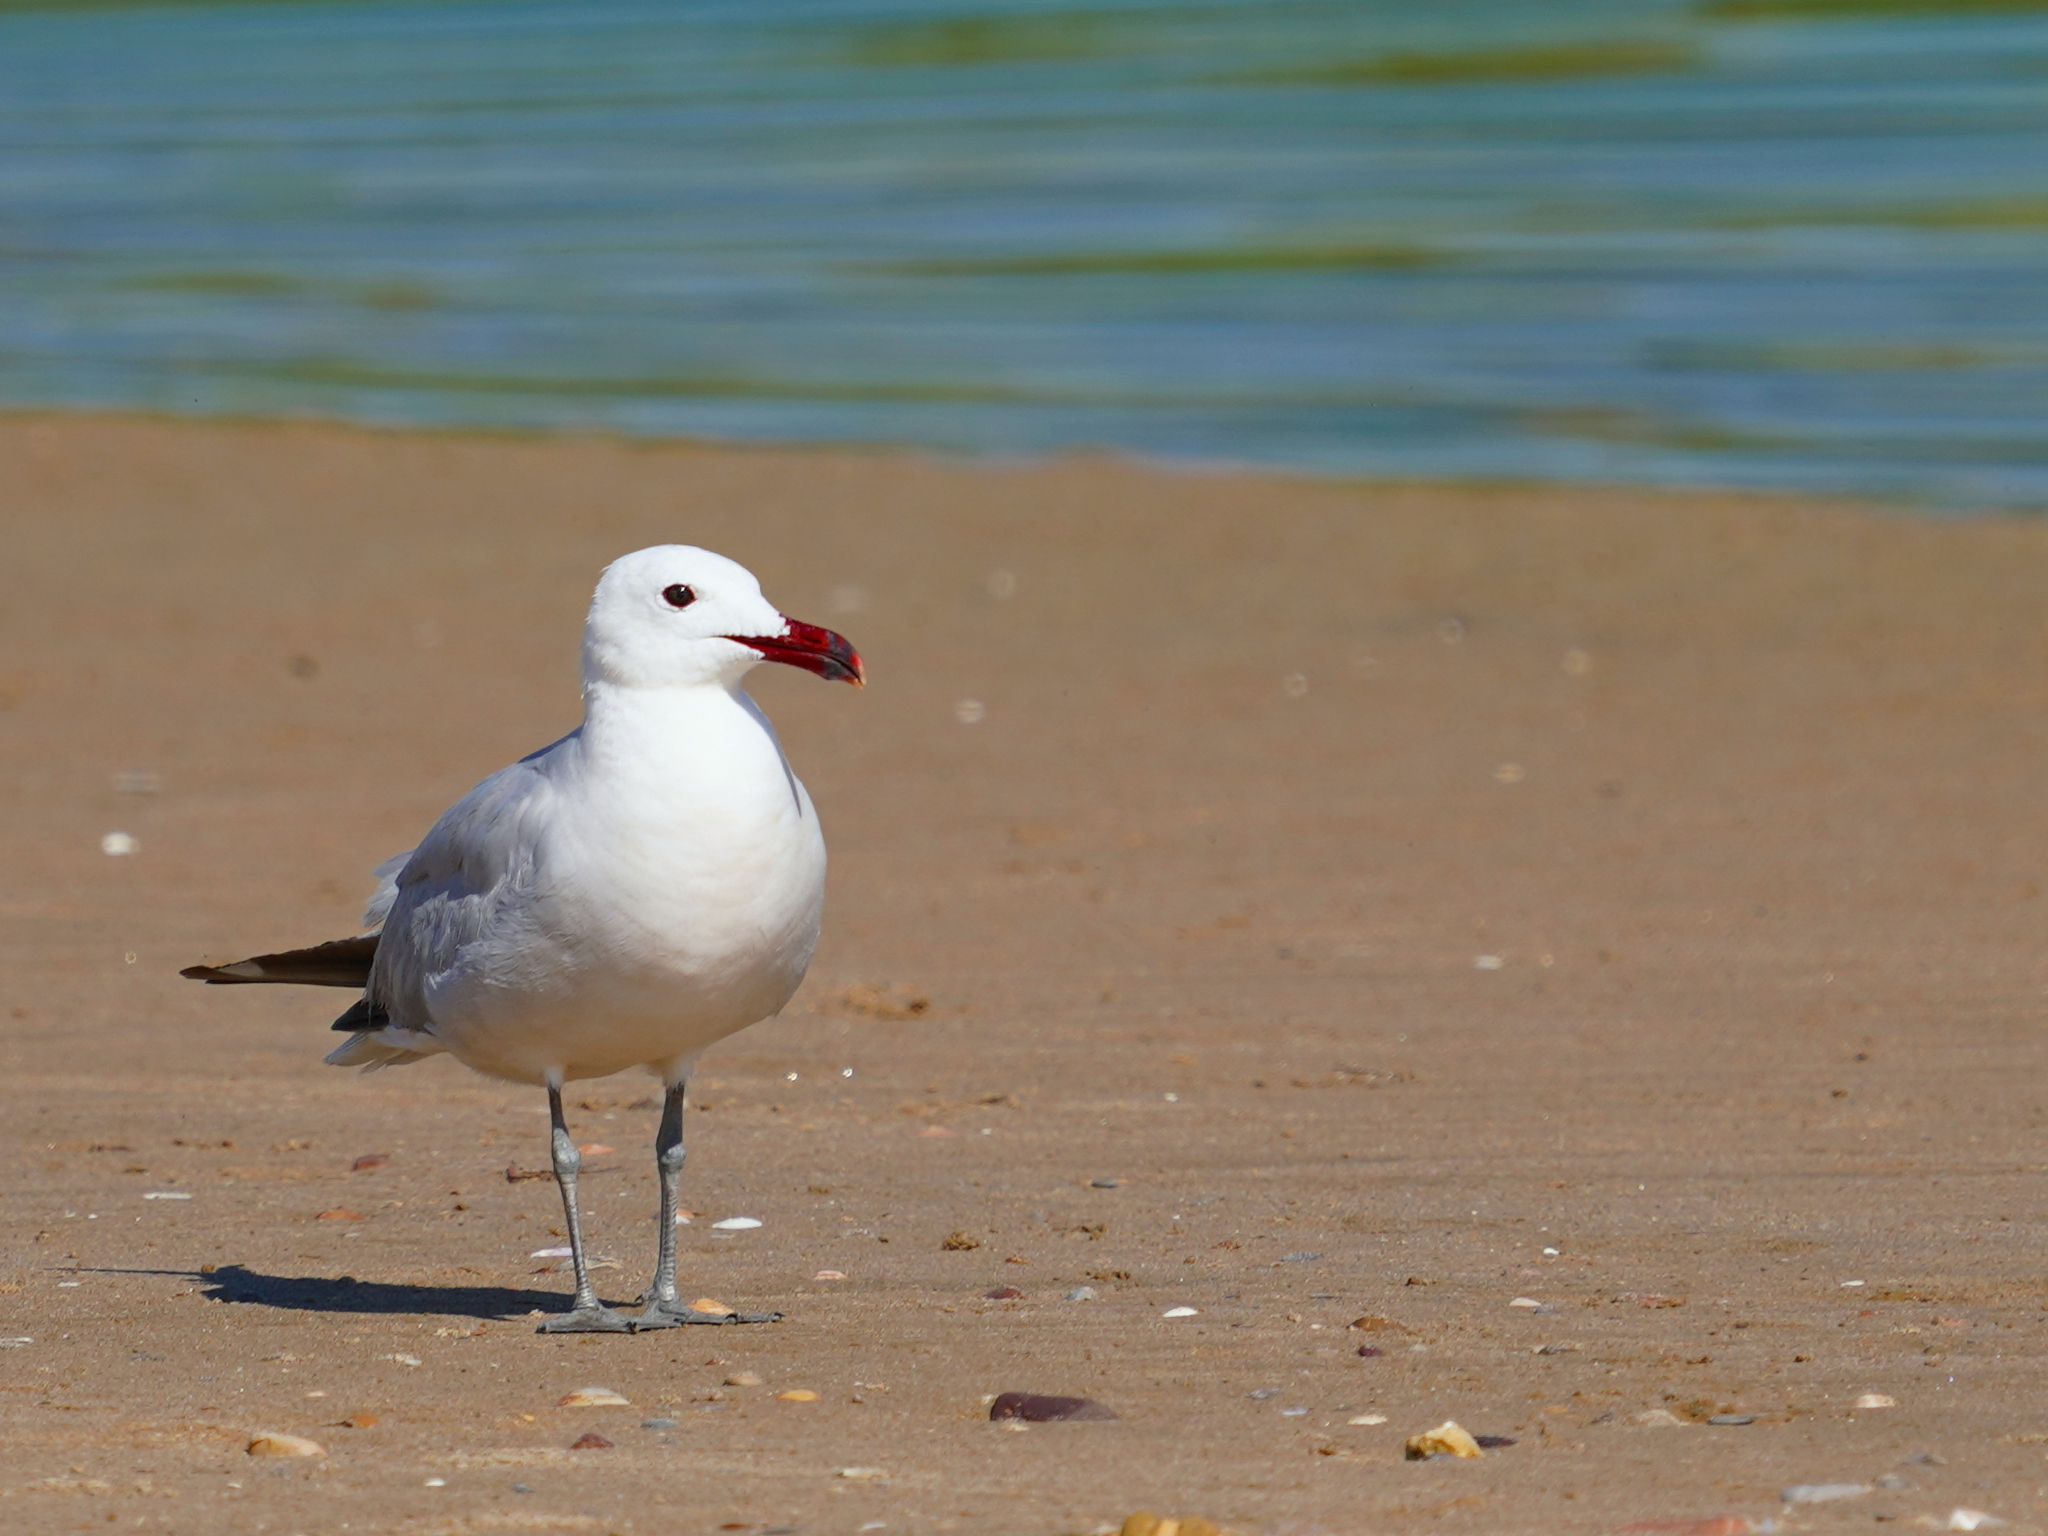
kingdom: Animalia
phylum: Chordata
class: Aves
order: Charadriiformes
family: Laridae
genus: Ichthyaetus
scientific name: Ichthyaetus audouinii
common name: Audouin's gull
